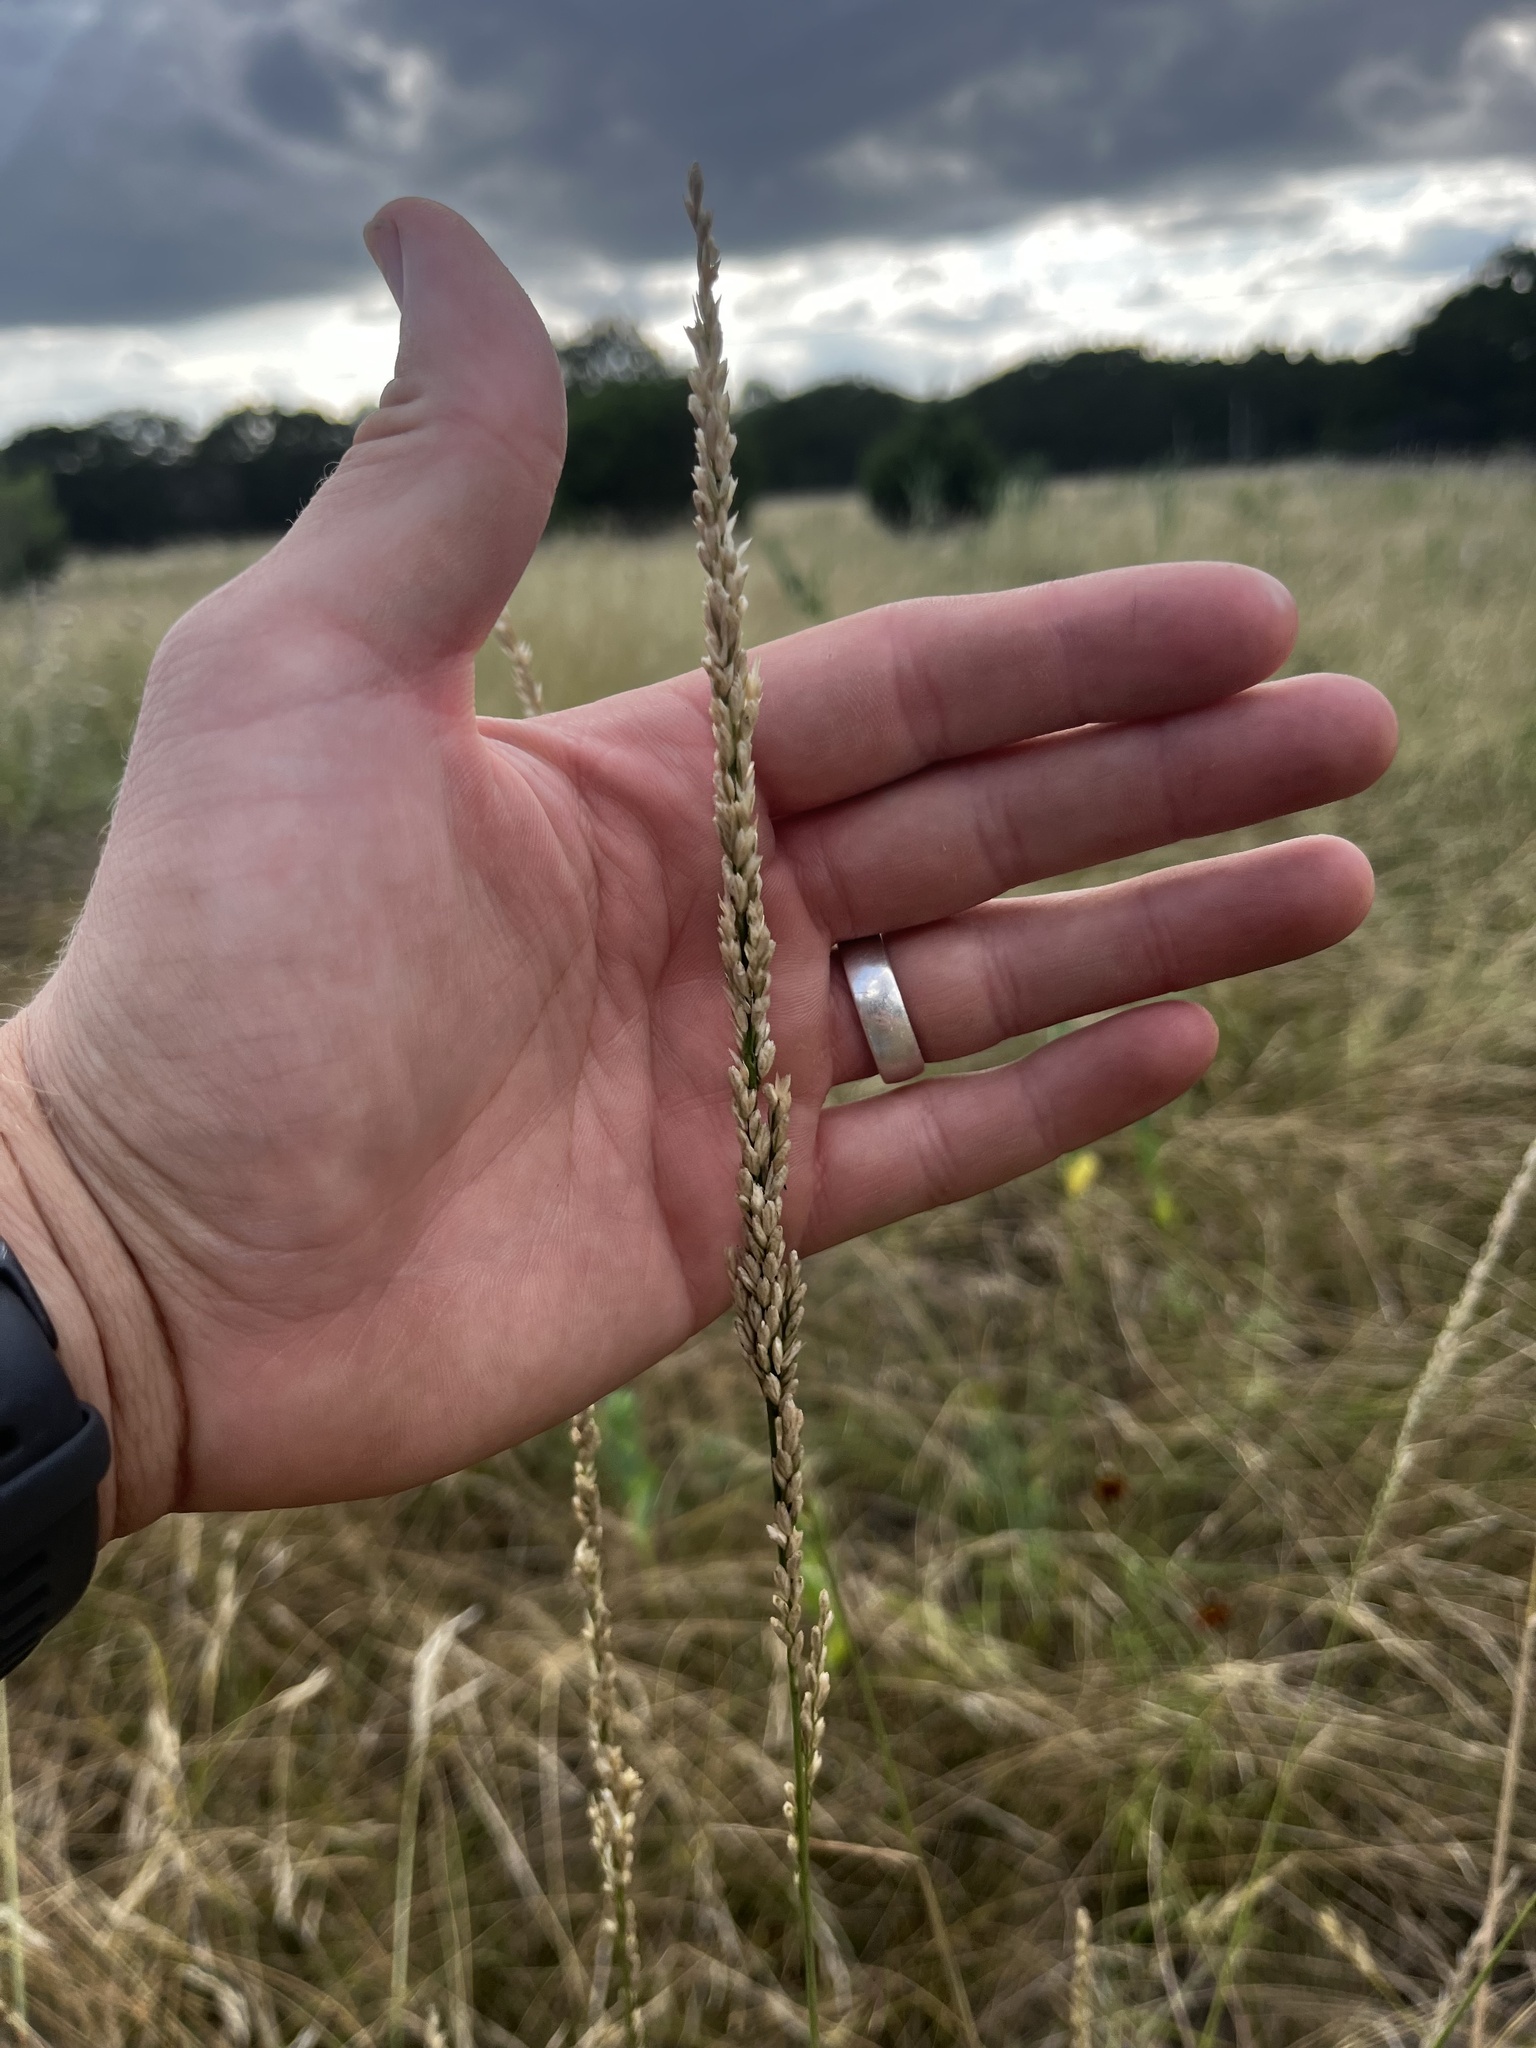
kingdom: Plantae
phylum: Tracheophyta
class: Liliopsida
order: Poales
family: Poaceae
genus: Tridens
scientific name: Tridens albescens
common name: White tridens
